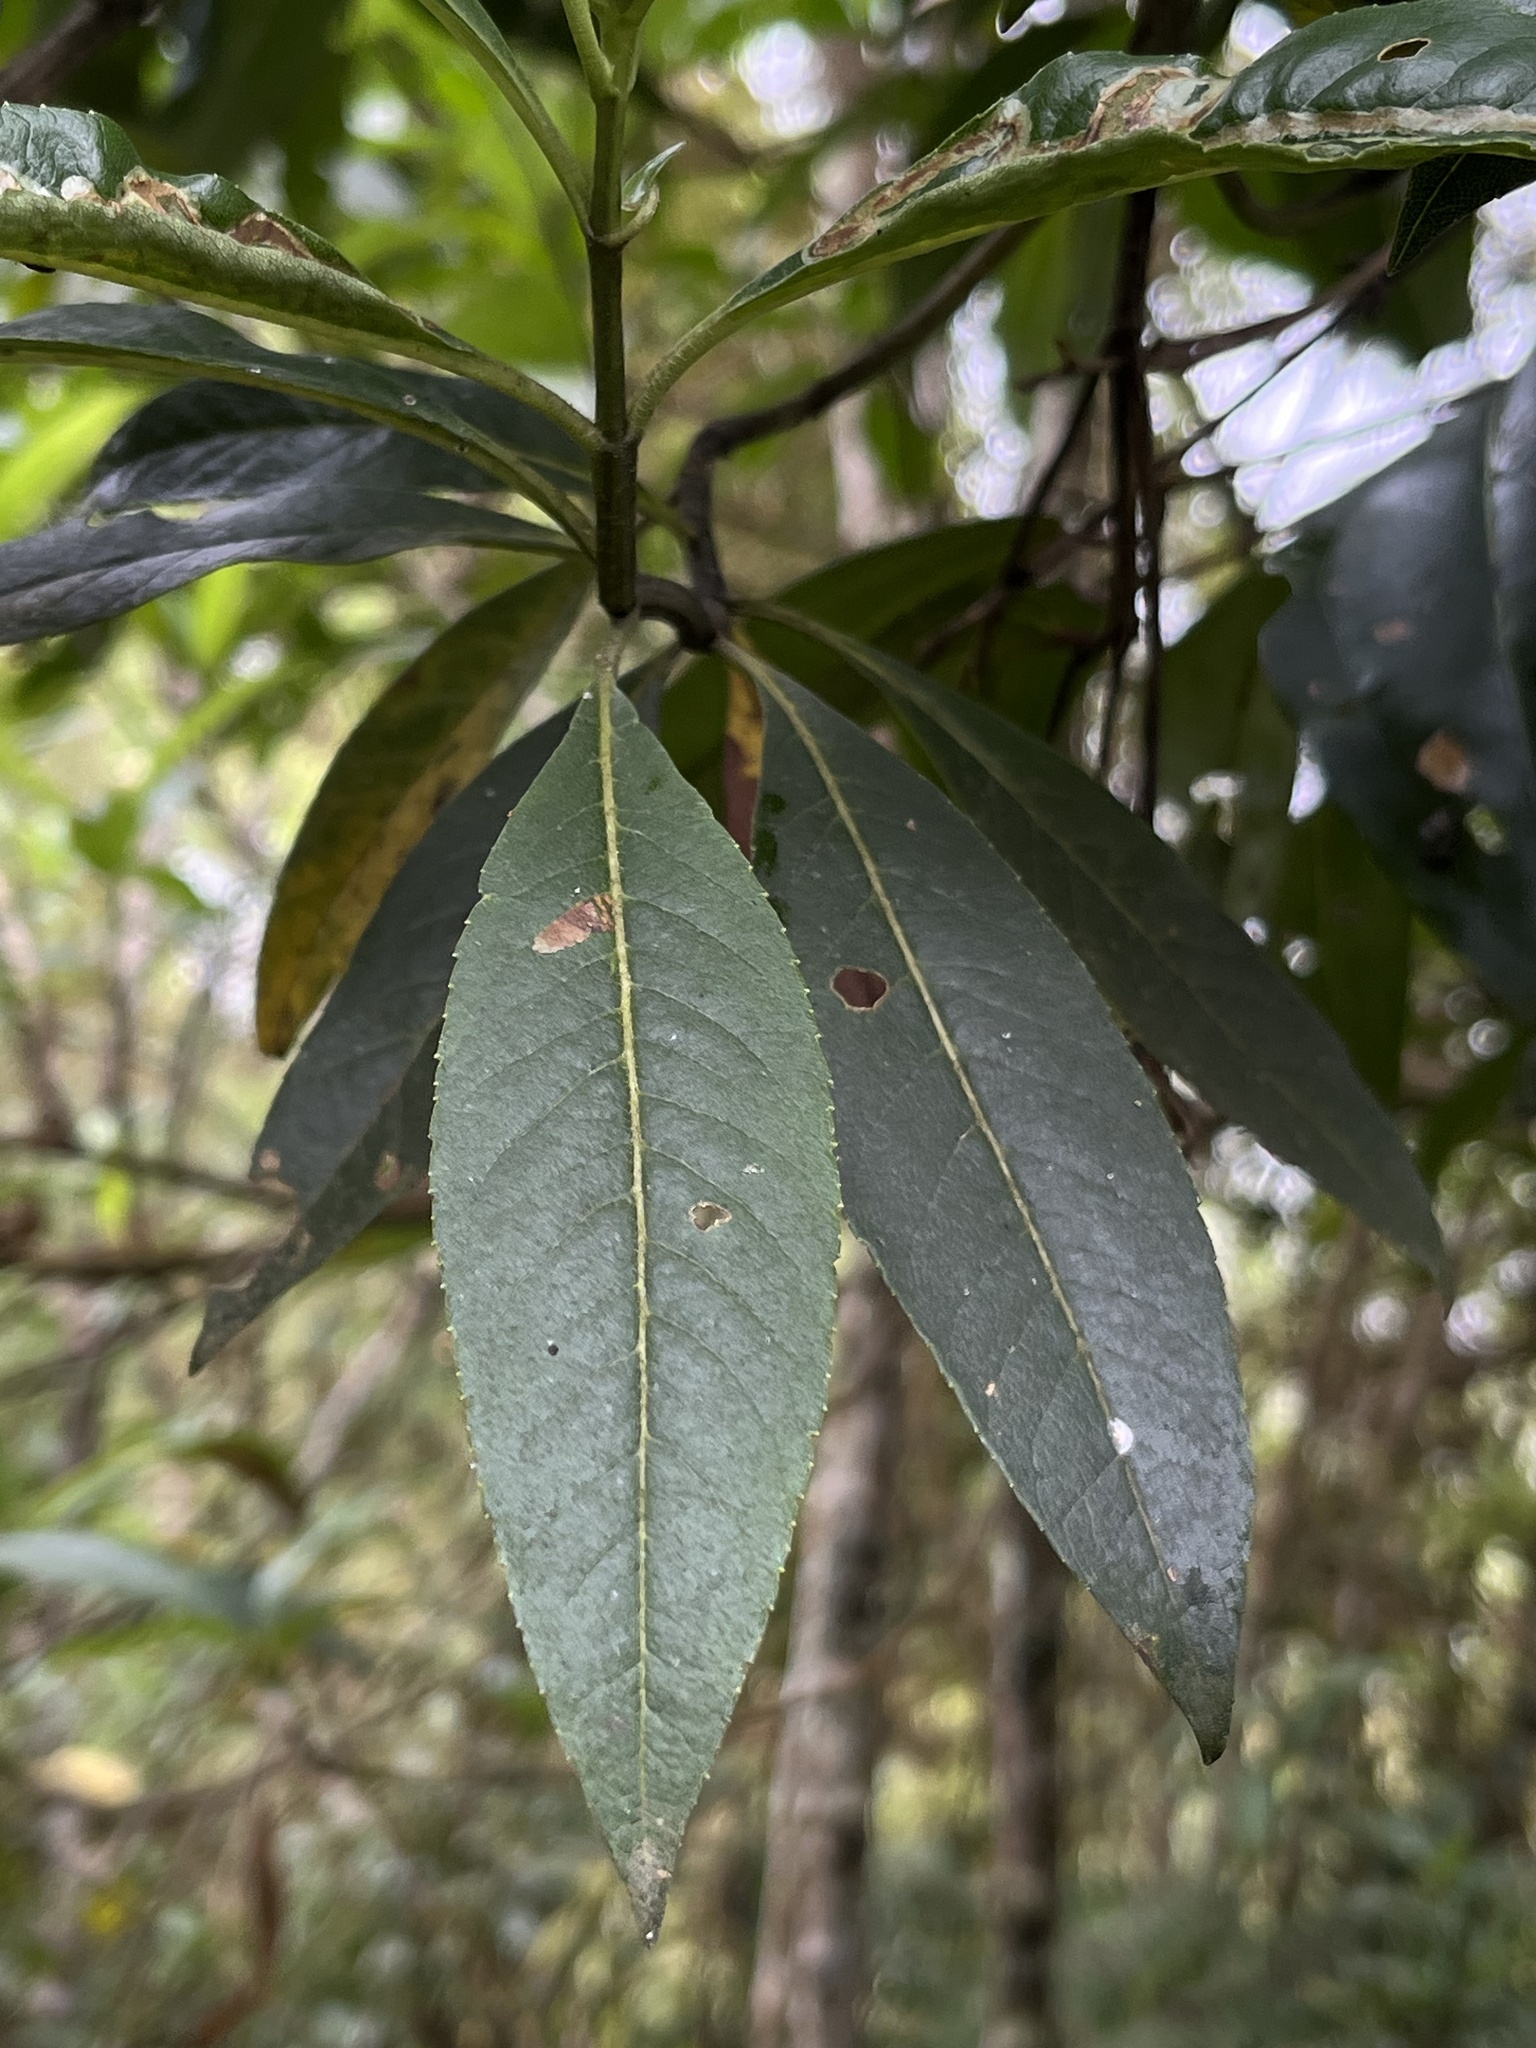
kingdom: Plantae
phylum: Tracheophyta
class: Magnoliopsida
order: Asterales
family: Asteraceae
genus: Ageratina
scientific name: Ageratina popayanensis
